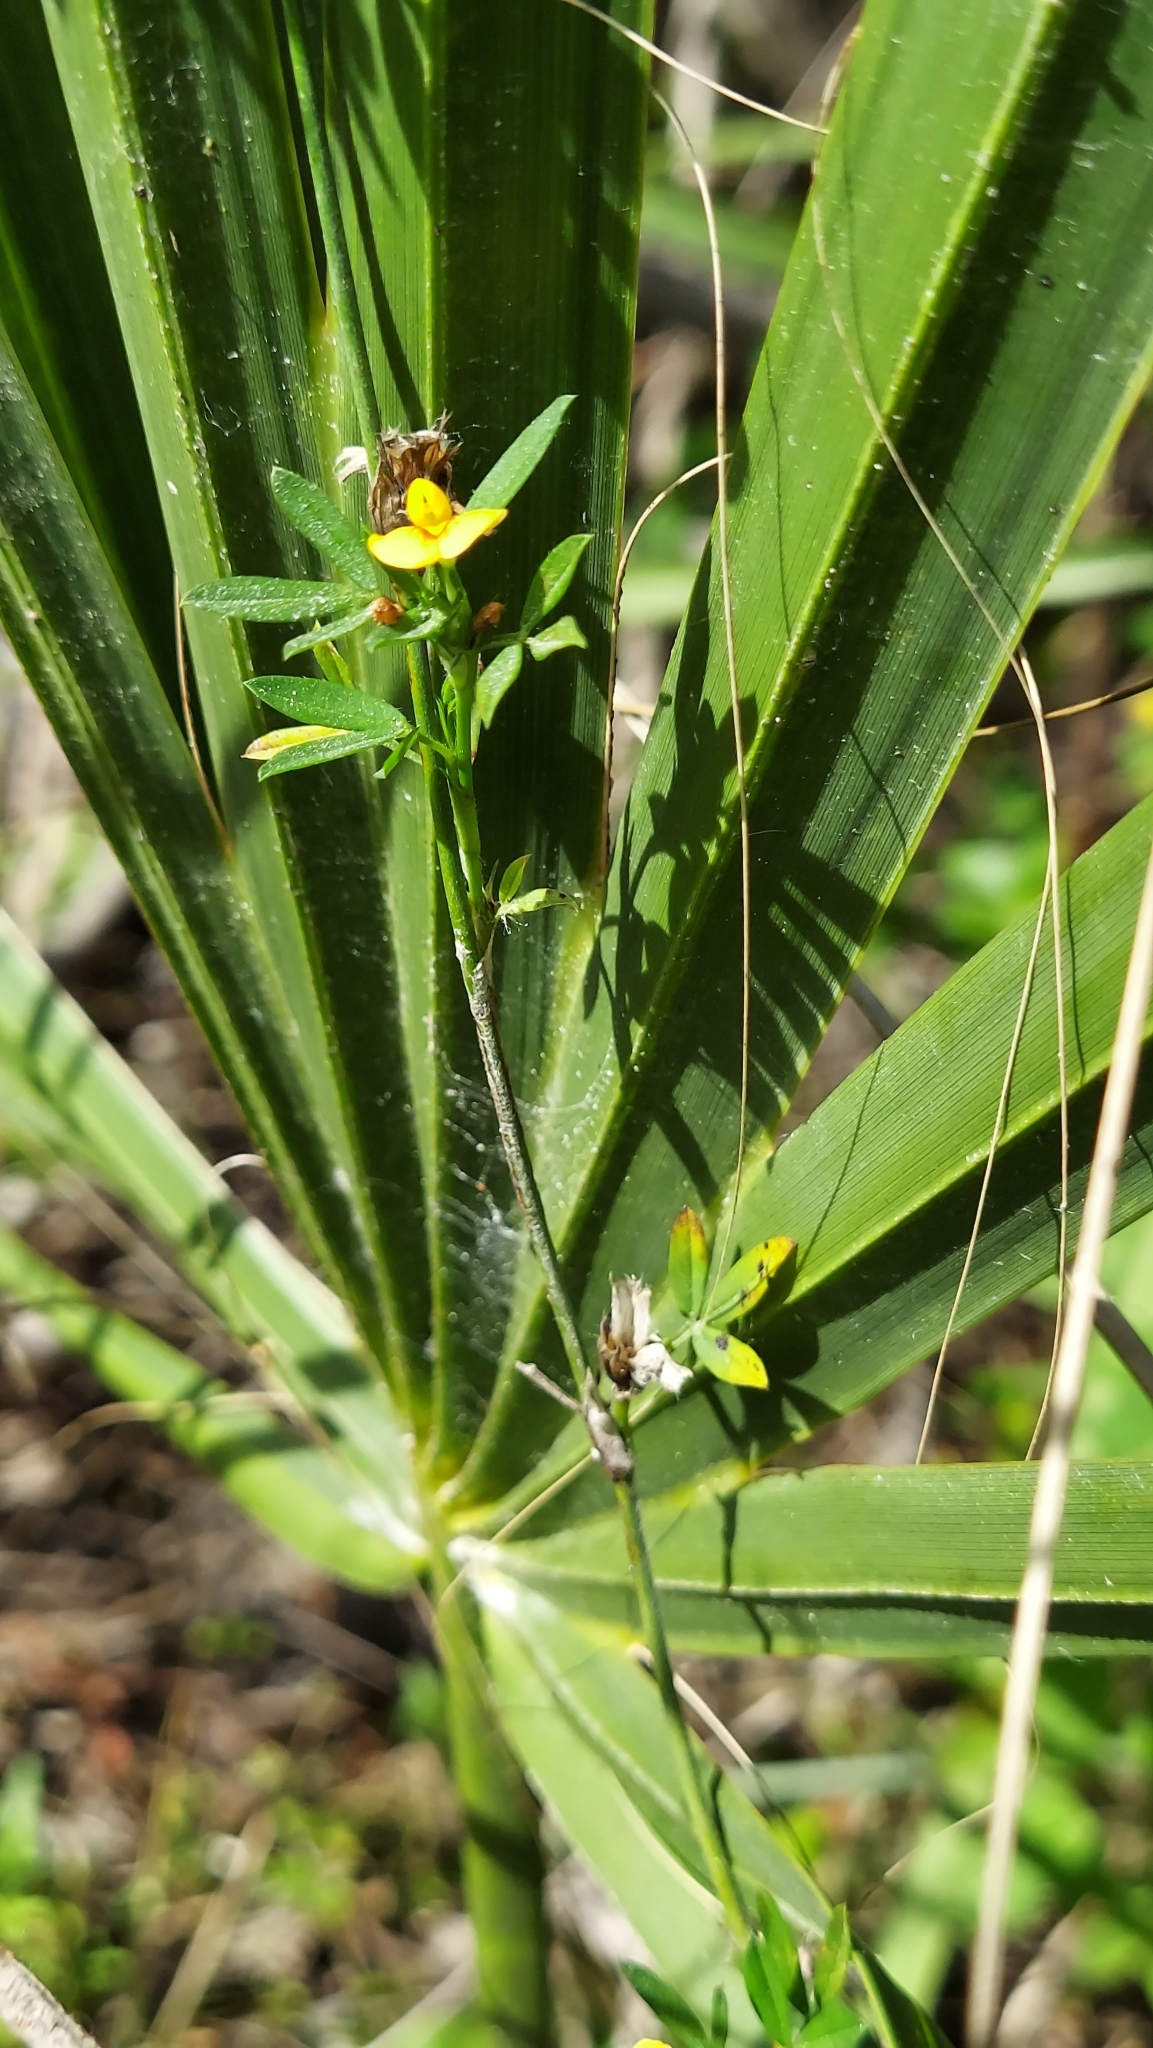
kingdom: Plantae
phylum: Tracheophyta
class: Magnoliopsida
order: Fabales
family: Fabaceae
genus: Stylosanthes
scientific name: Stylosanthes hamata
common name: Cheesytoes
